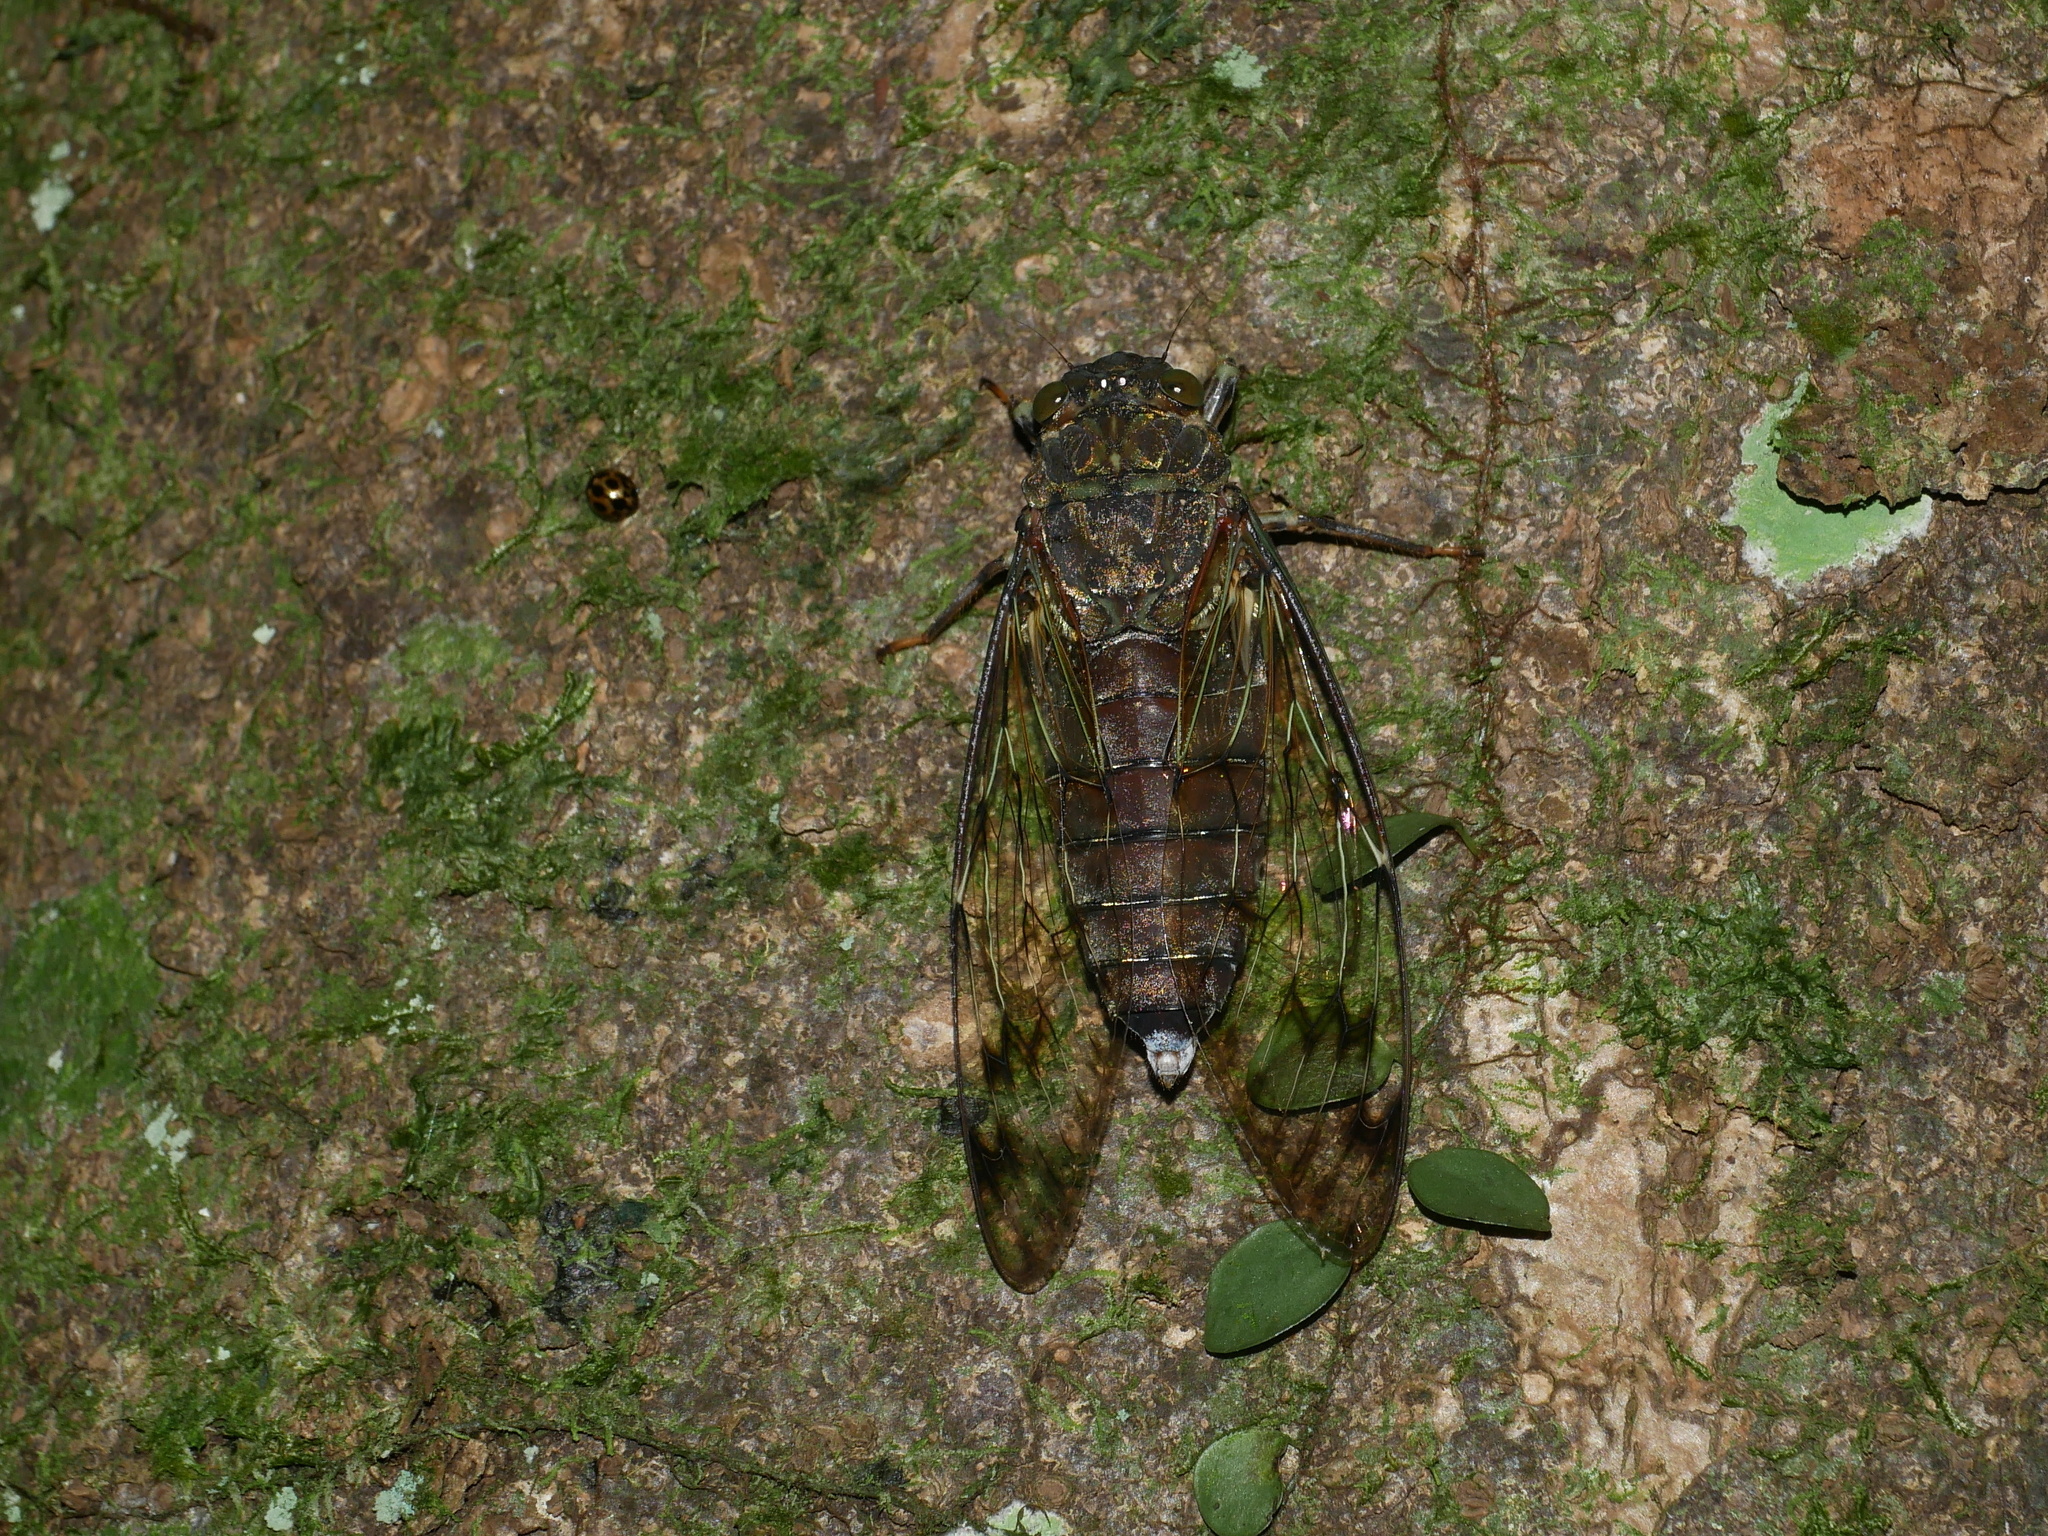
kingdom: Animalia
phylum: Arthropoda
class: Insecta
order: Hemiptera
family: Cicadidae
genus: Pomponia
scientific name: Pomponia yayeyamana
